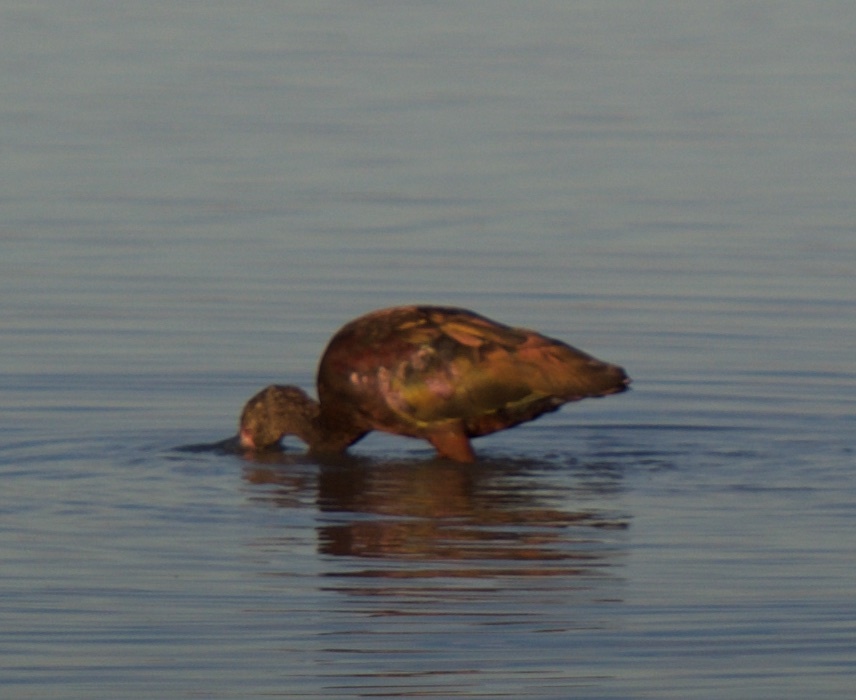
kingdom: Animalia
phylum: Chordata
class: Aves
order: Pelecaniformes
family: Threskiornithidae
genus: Plegadis
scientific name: Plegadis chihi
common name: White-faced ibis
